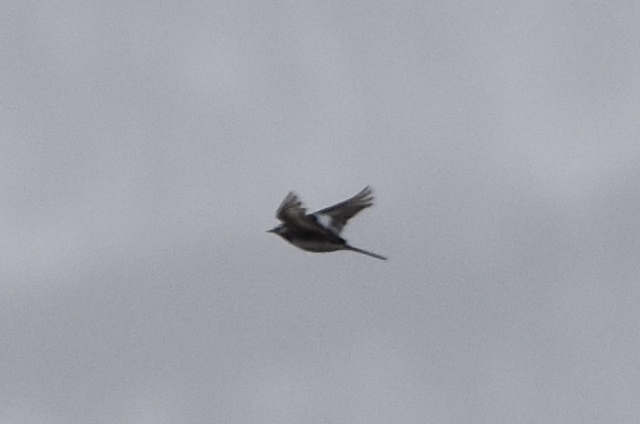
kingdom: Animalia
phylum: Chordata
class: Aves
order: Passeriformes
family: Motacillidae
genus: Motacilla
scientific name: Motacilla alba
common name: White wagtail
